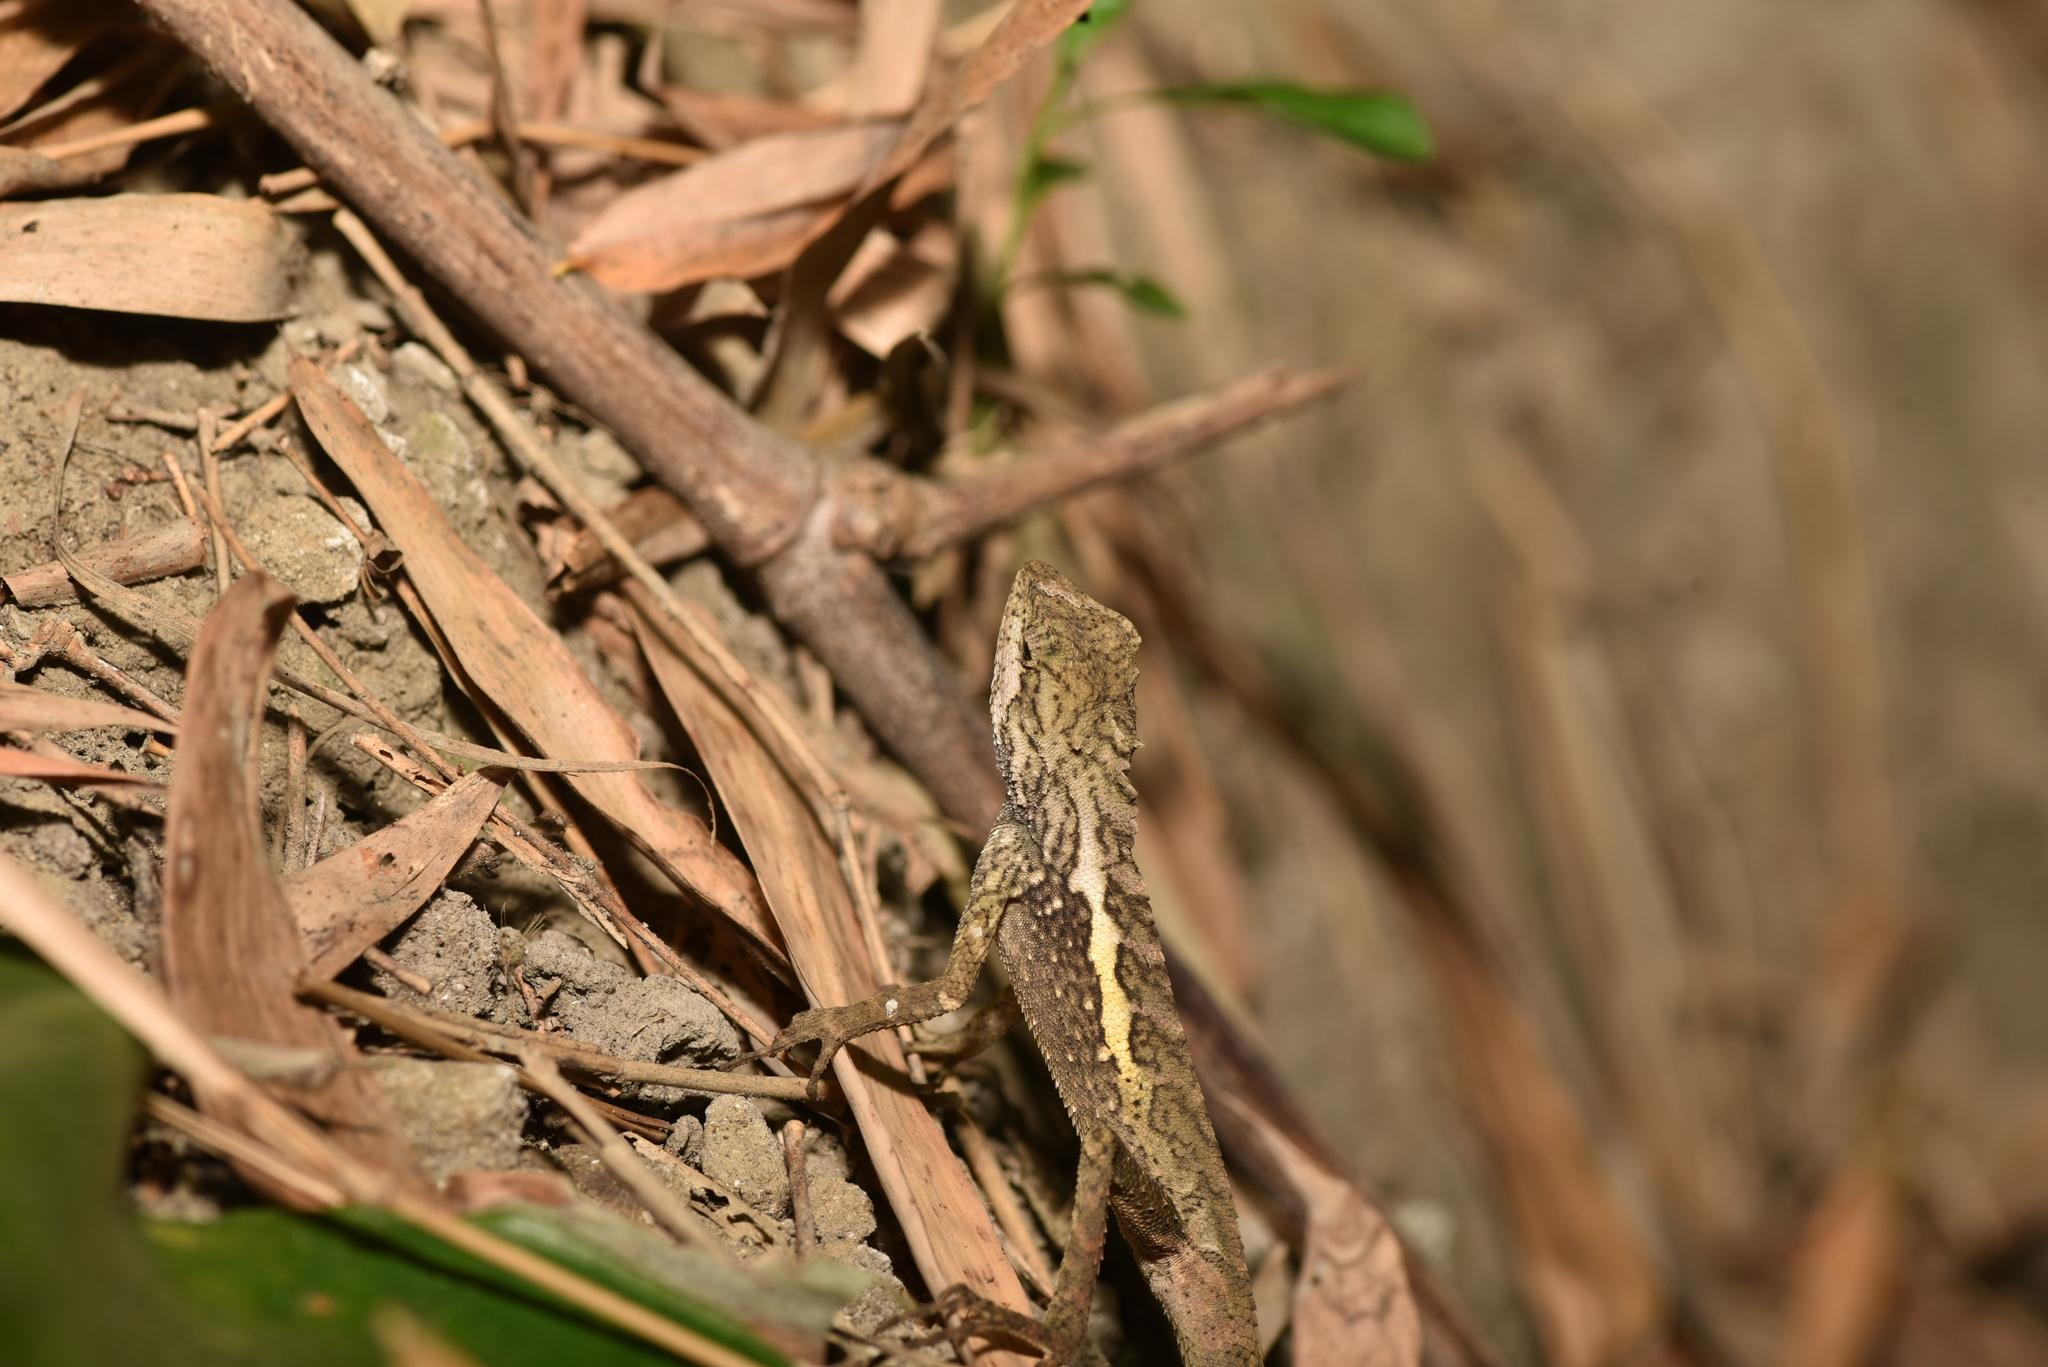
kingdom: Animalia
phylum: Chordata
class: Squamata
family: Agamidae
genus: Diploderma
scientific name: Diploderma swinhonis
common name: Taiwan japalure
